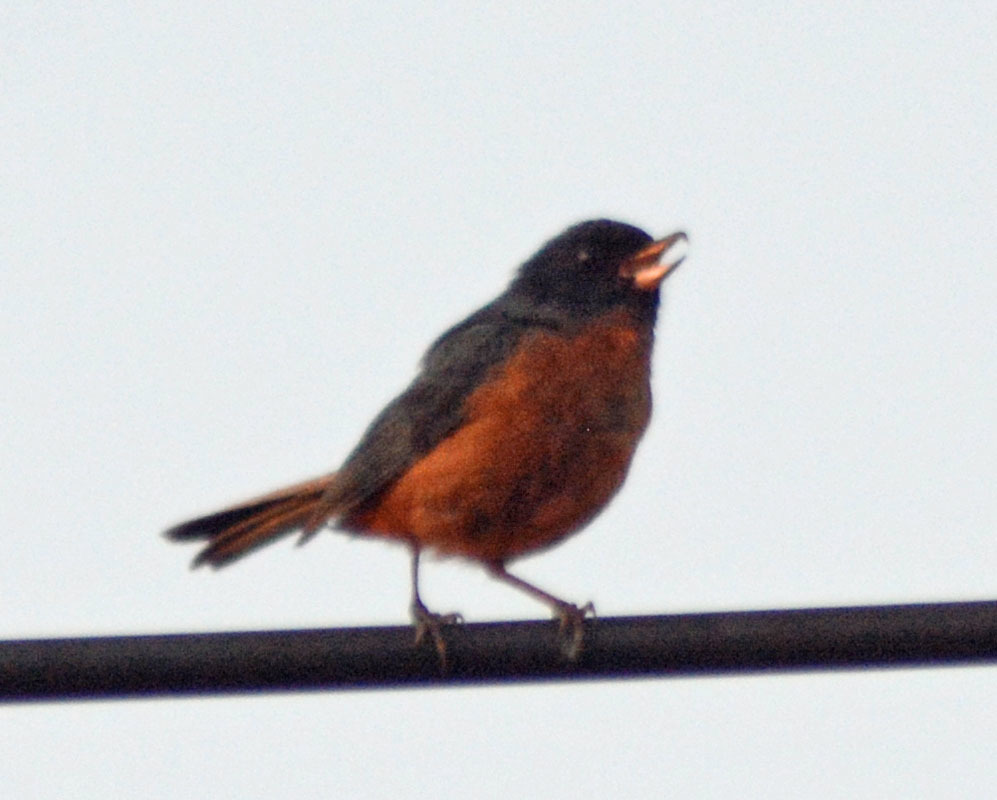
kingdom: Animalia
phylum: Chordata
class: Aves
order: Passeriformes
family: Thraupidae
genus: Diglossa
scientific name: Diglossa baritula
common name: Cinnamon-bellied flowerpiercer
